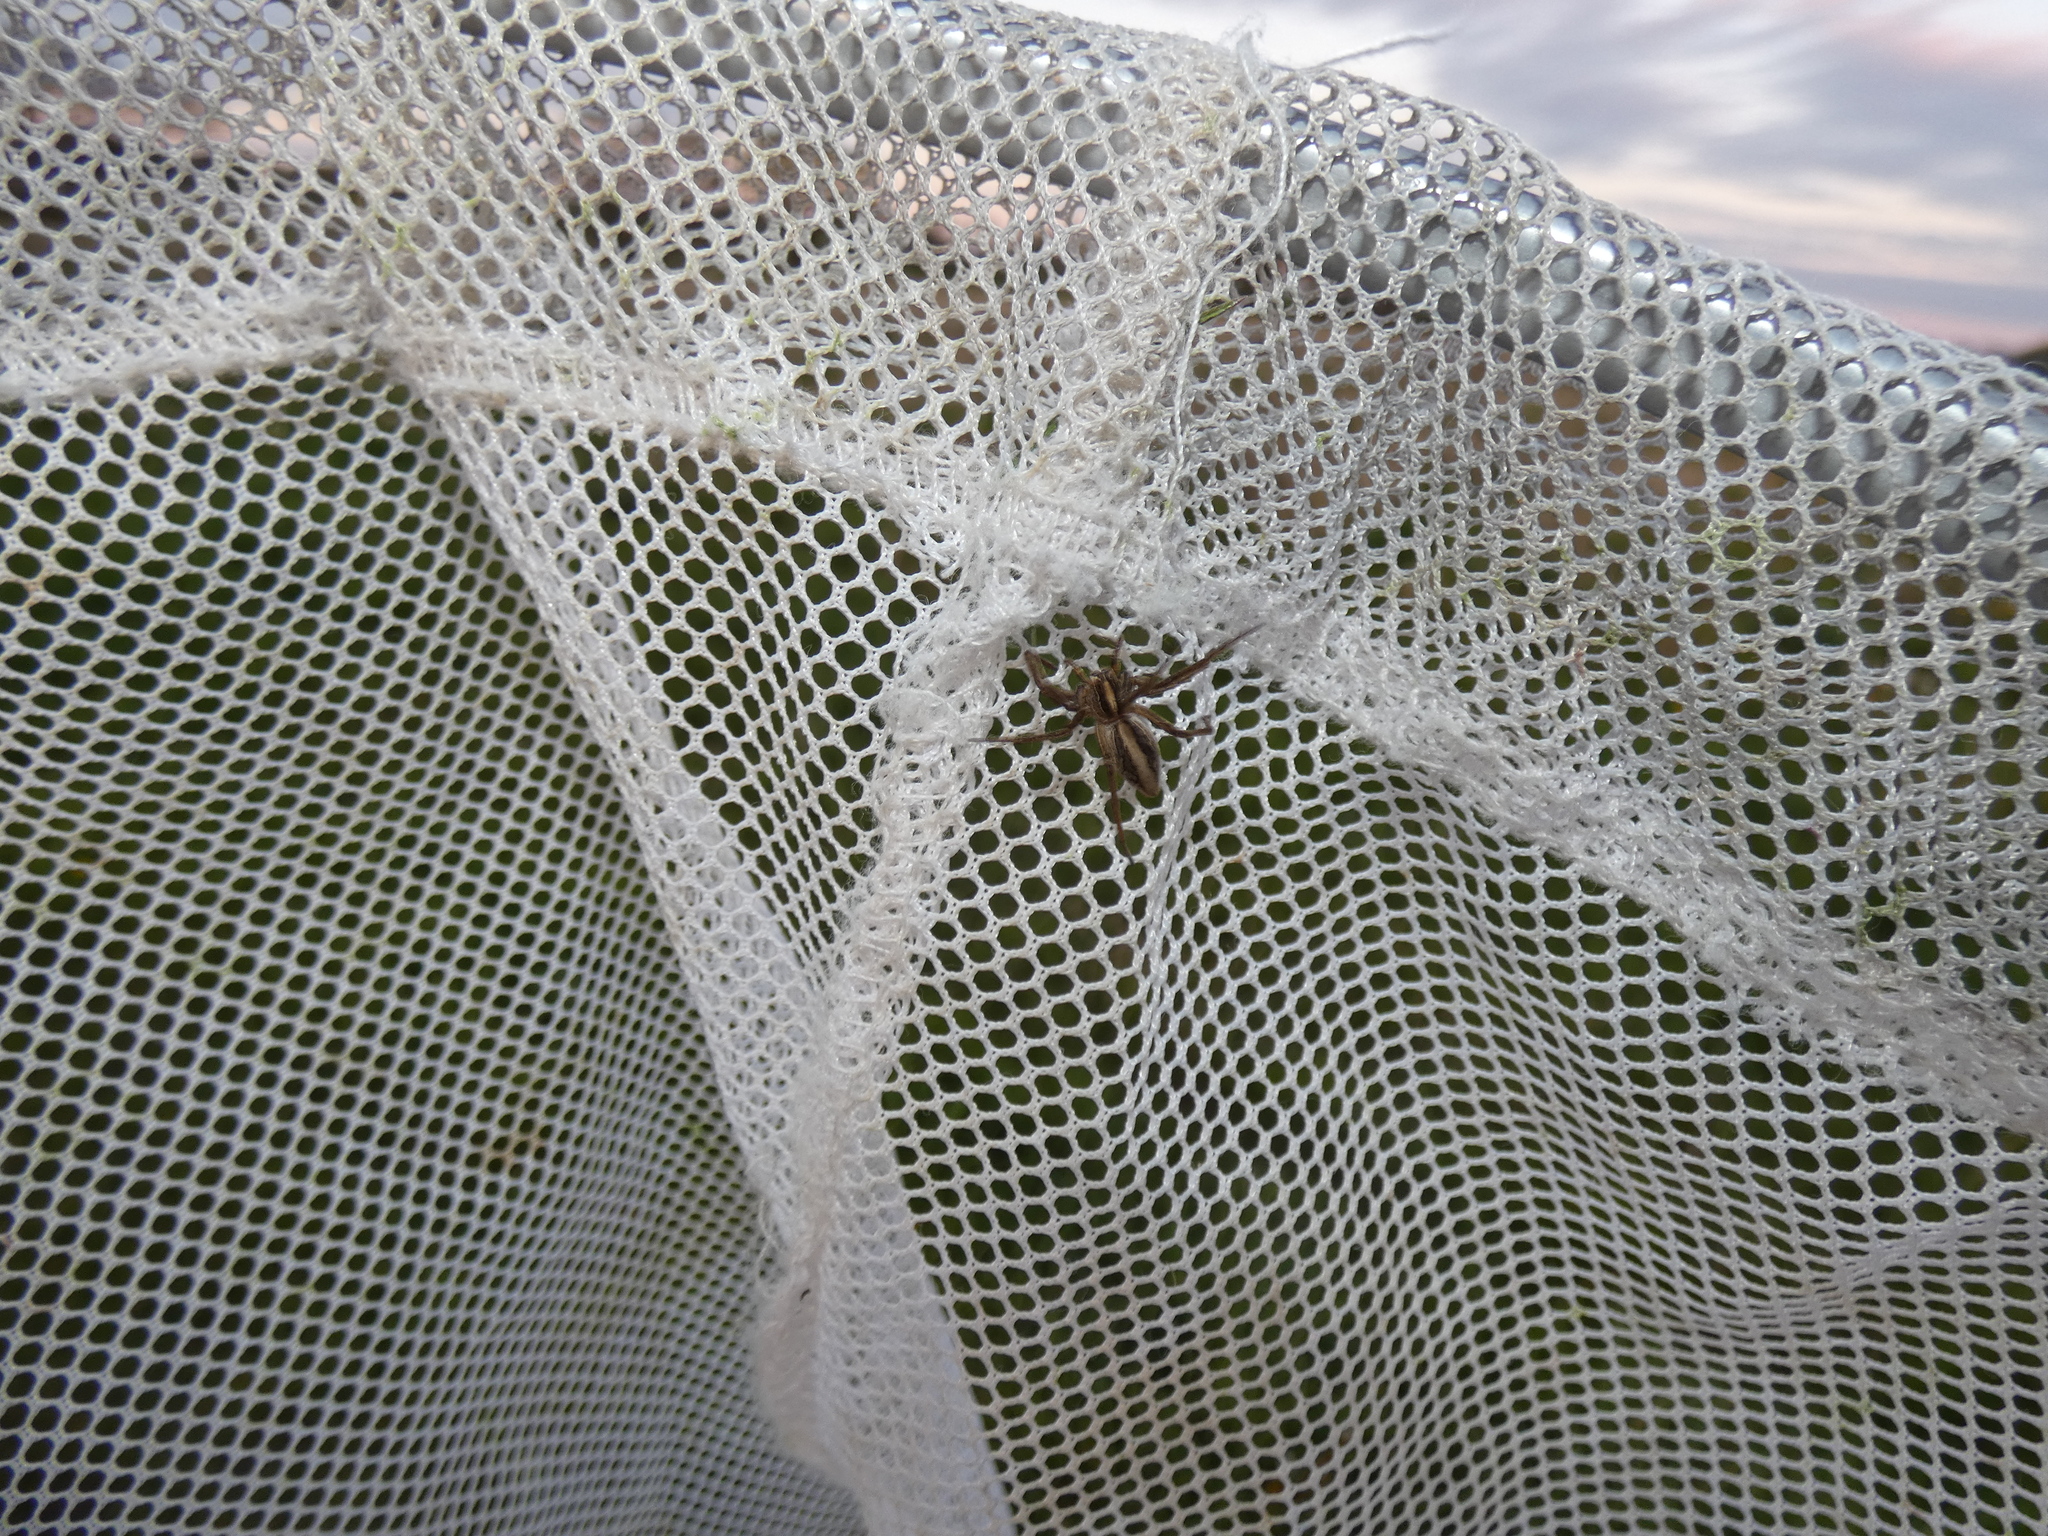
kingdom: Animalia
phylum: Arthropoda
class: Arachnida
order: Araneae
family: Pisauridae
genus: Pisaura
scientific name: Pisaura mirabilis
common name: Tent spider
